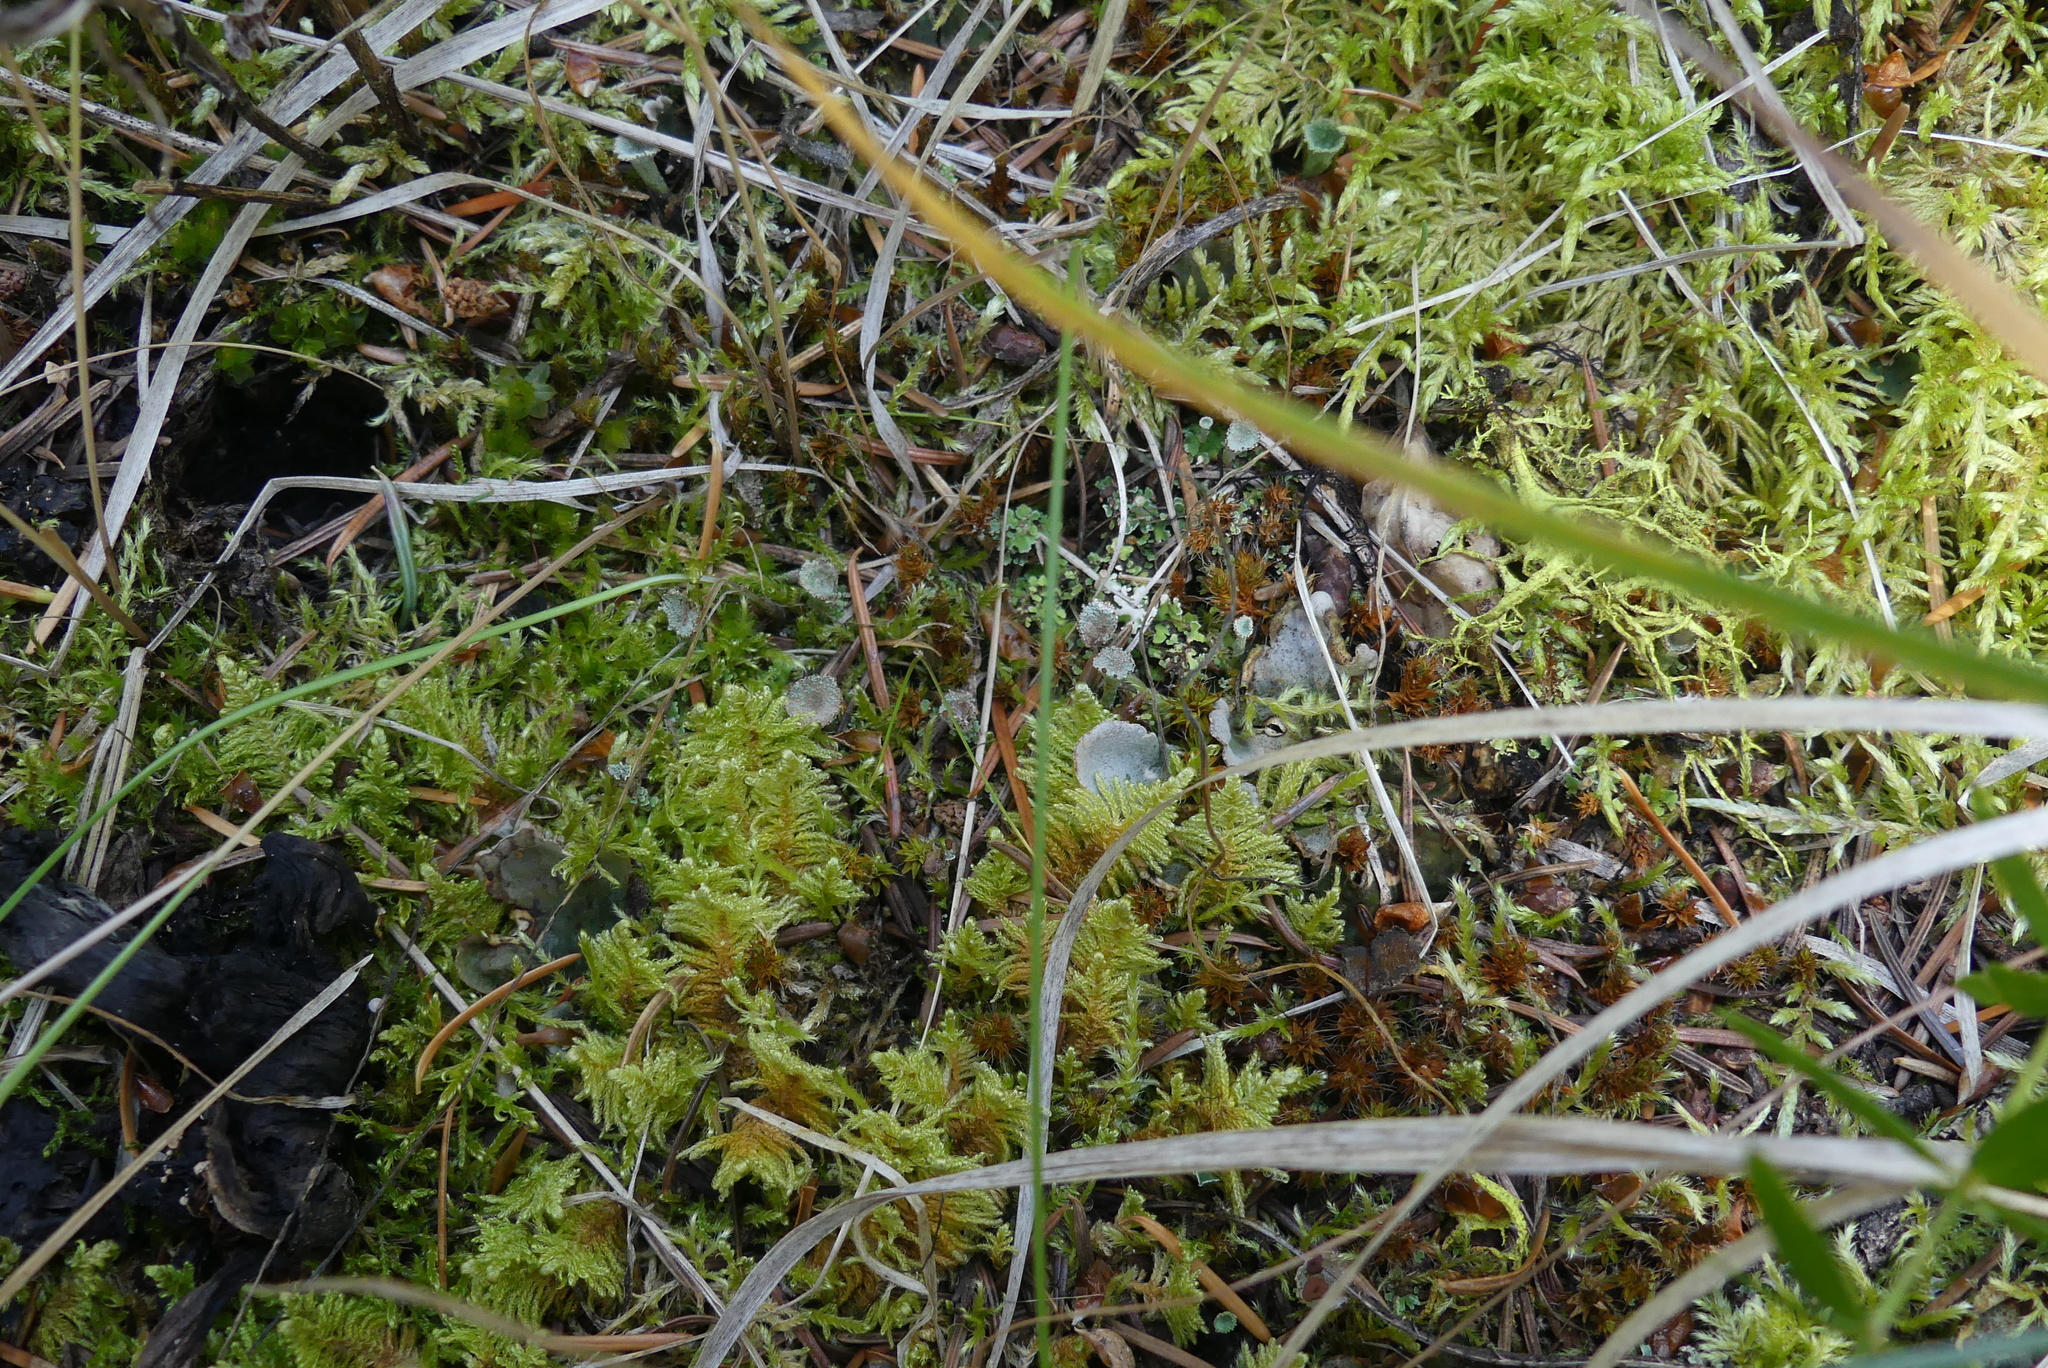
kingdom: Plantae
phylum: Bryophyta
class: Bryopsida
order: Hypnales
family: Pylaisiaceae
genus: Ptilium
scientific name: Ptilium crista-castrensis
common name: Knight's plume moss
